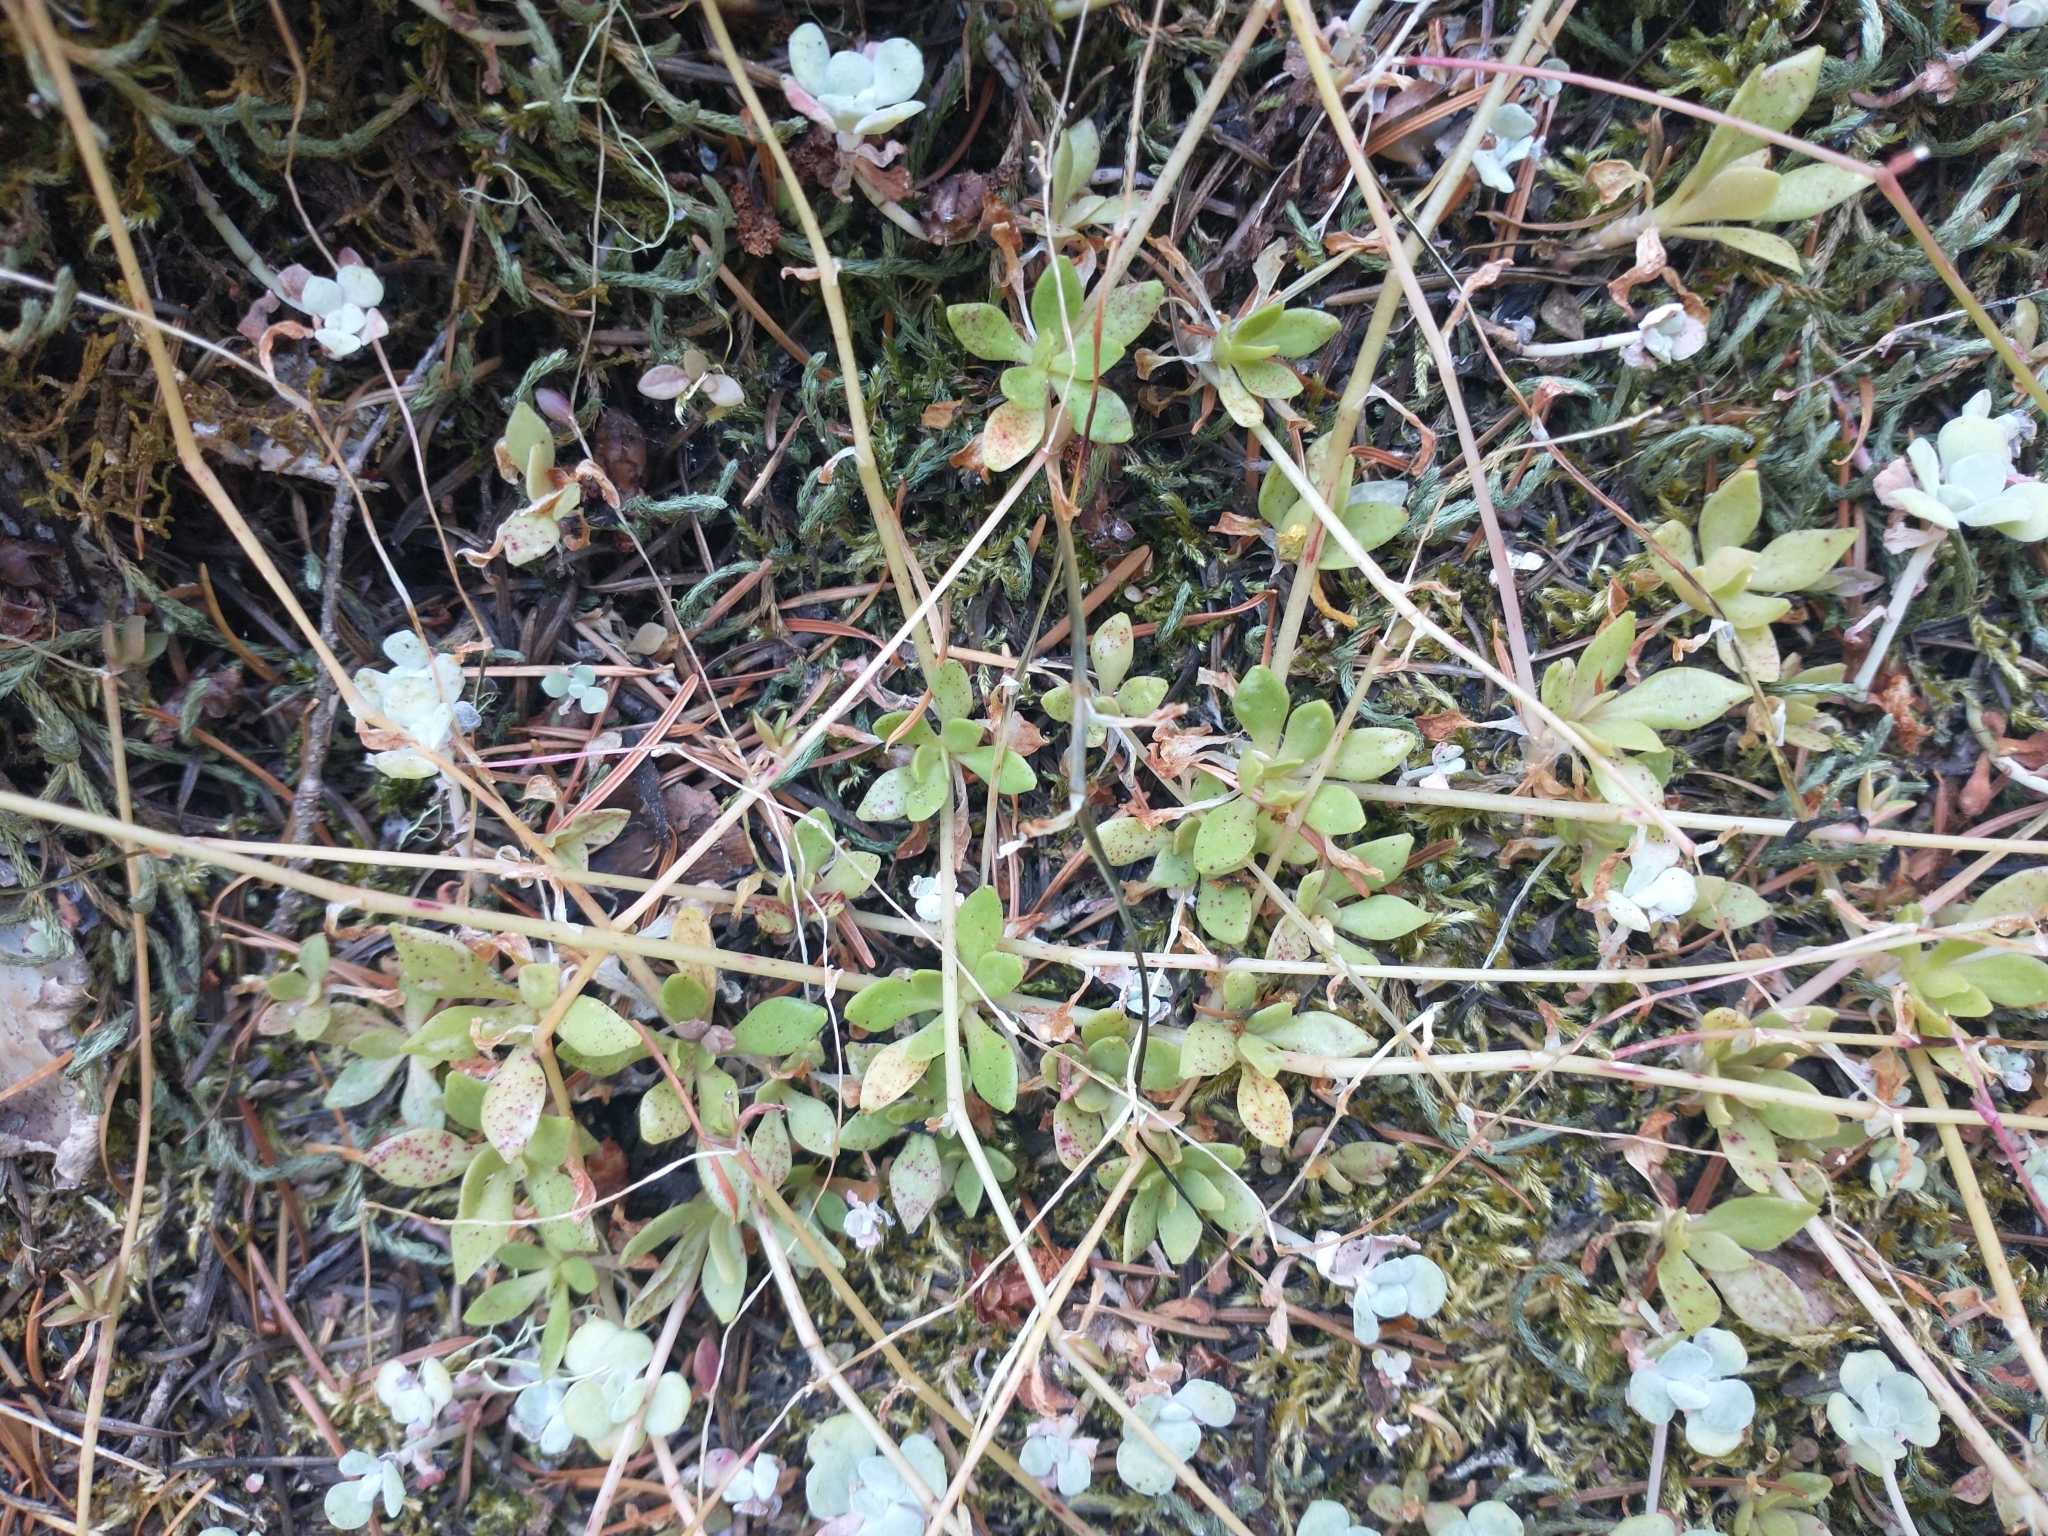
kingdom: Plantae
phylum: Tracheophyta
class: Magnoliopsida
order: Caryophyllales
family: Montiaceae
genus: Montia
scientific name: Montia parvifolia
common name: Small-leaved blinks
